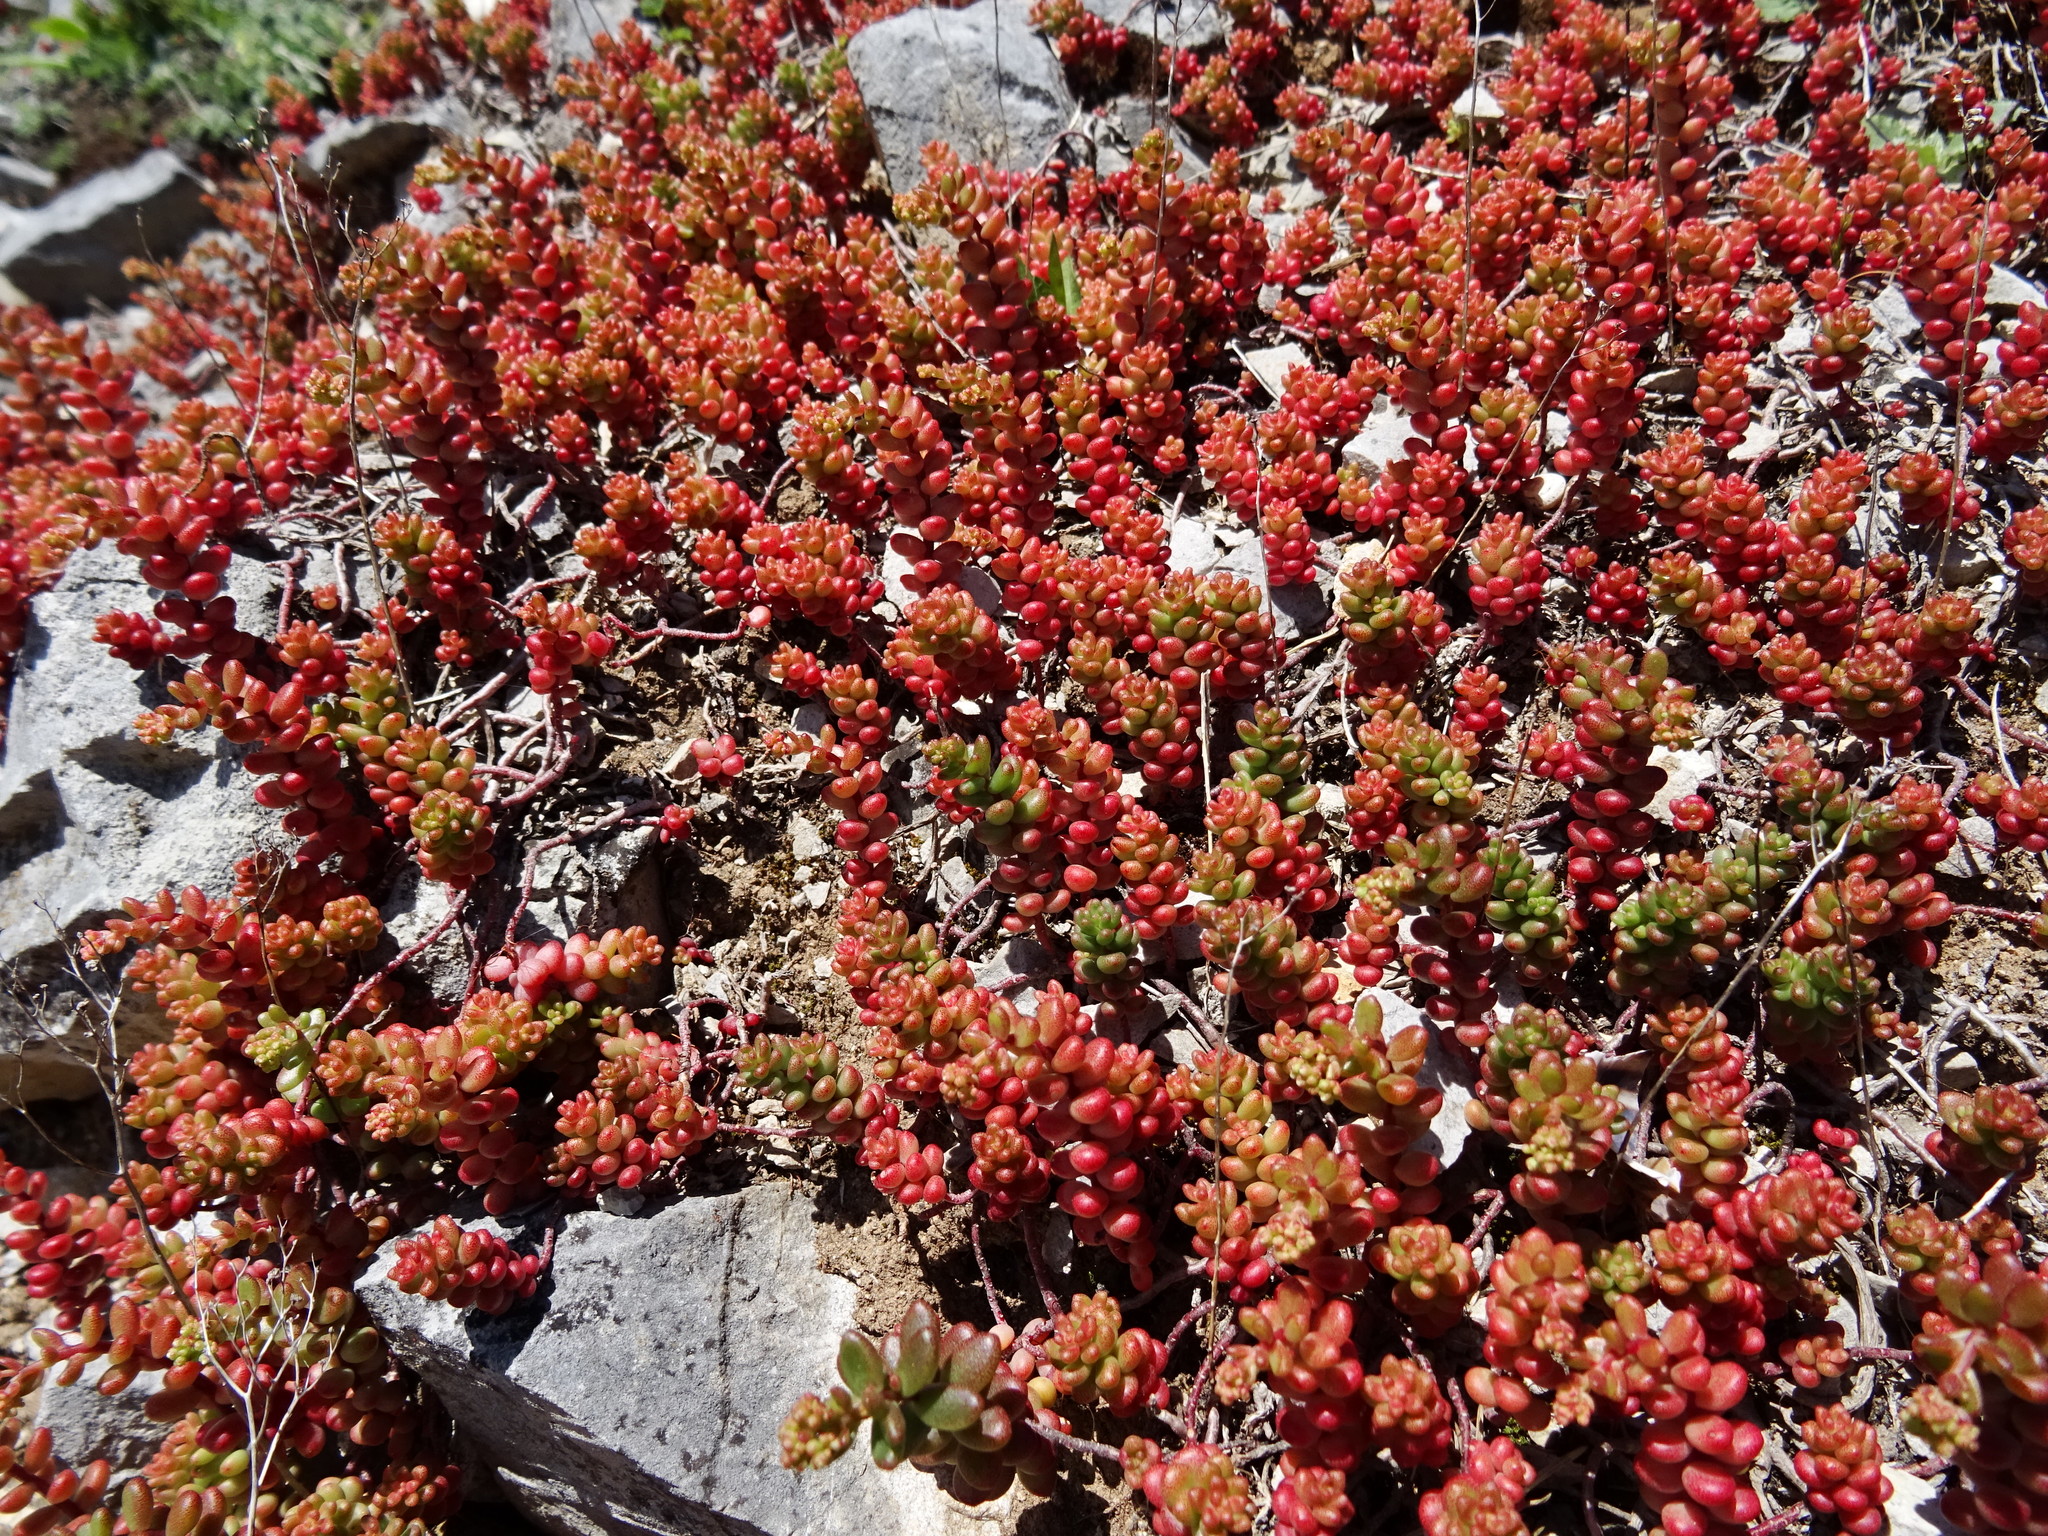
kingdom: Plantae
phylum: Tracheophyta
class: Magnoliopsida
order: Saxifragales
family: Crassulaceae
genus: Sedum
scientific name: Sedum album
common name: White stonecrop
